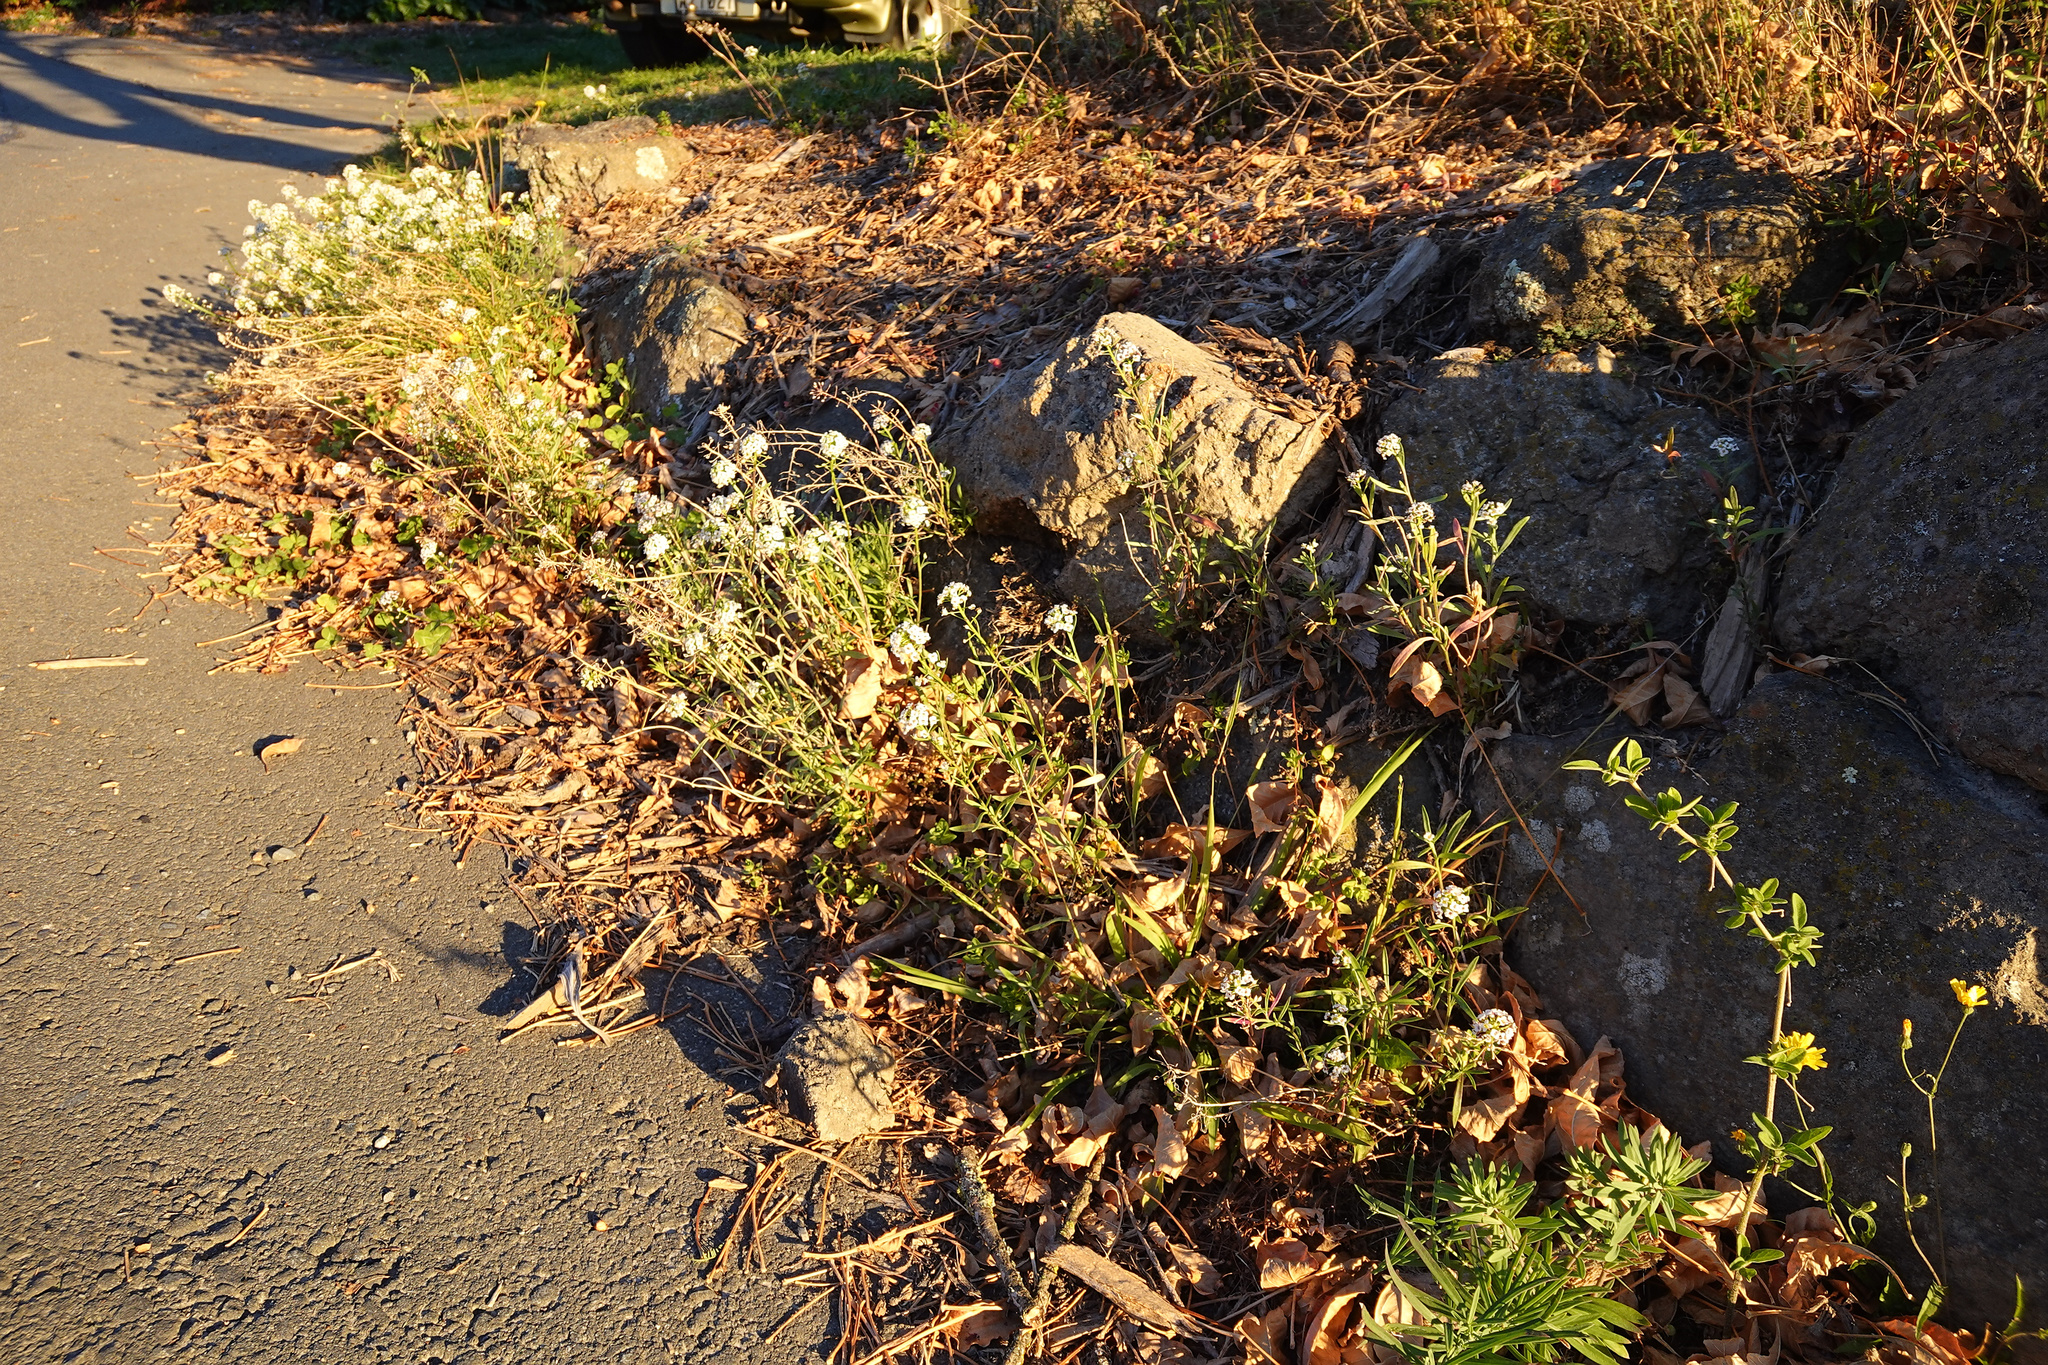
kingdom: Plantae
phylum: Tracheophyta
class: Magnoliopsida
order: Brassicales
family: Brassicaceae
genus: Lobularia
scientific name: Lobularia maritima
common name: Sweet alison
